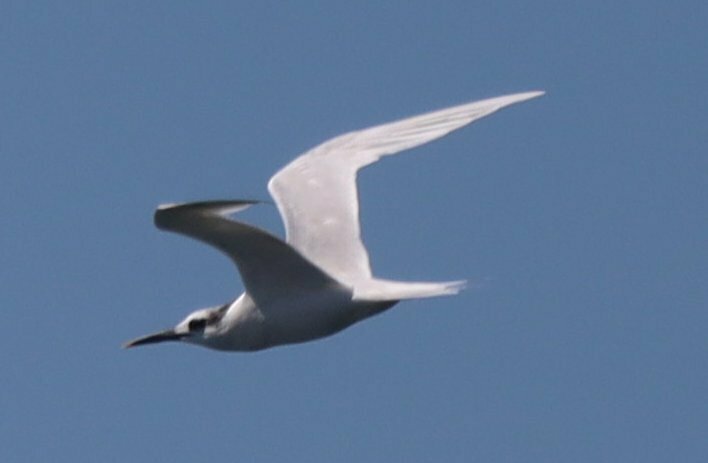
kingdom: Animalia
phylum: Chordata
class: Aves
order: Charadriiformes
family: Laridae
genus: Thalasseus
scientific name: Thalasseus sandvicensis
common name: Sandwich tern
